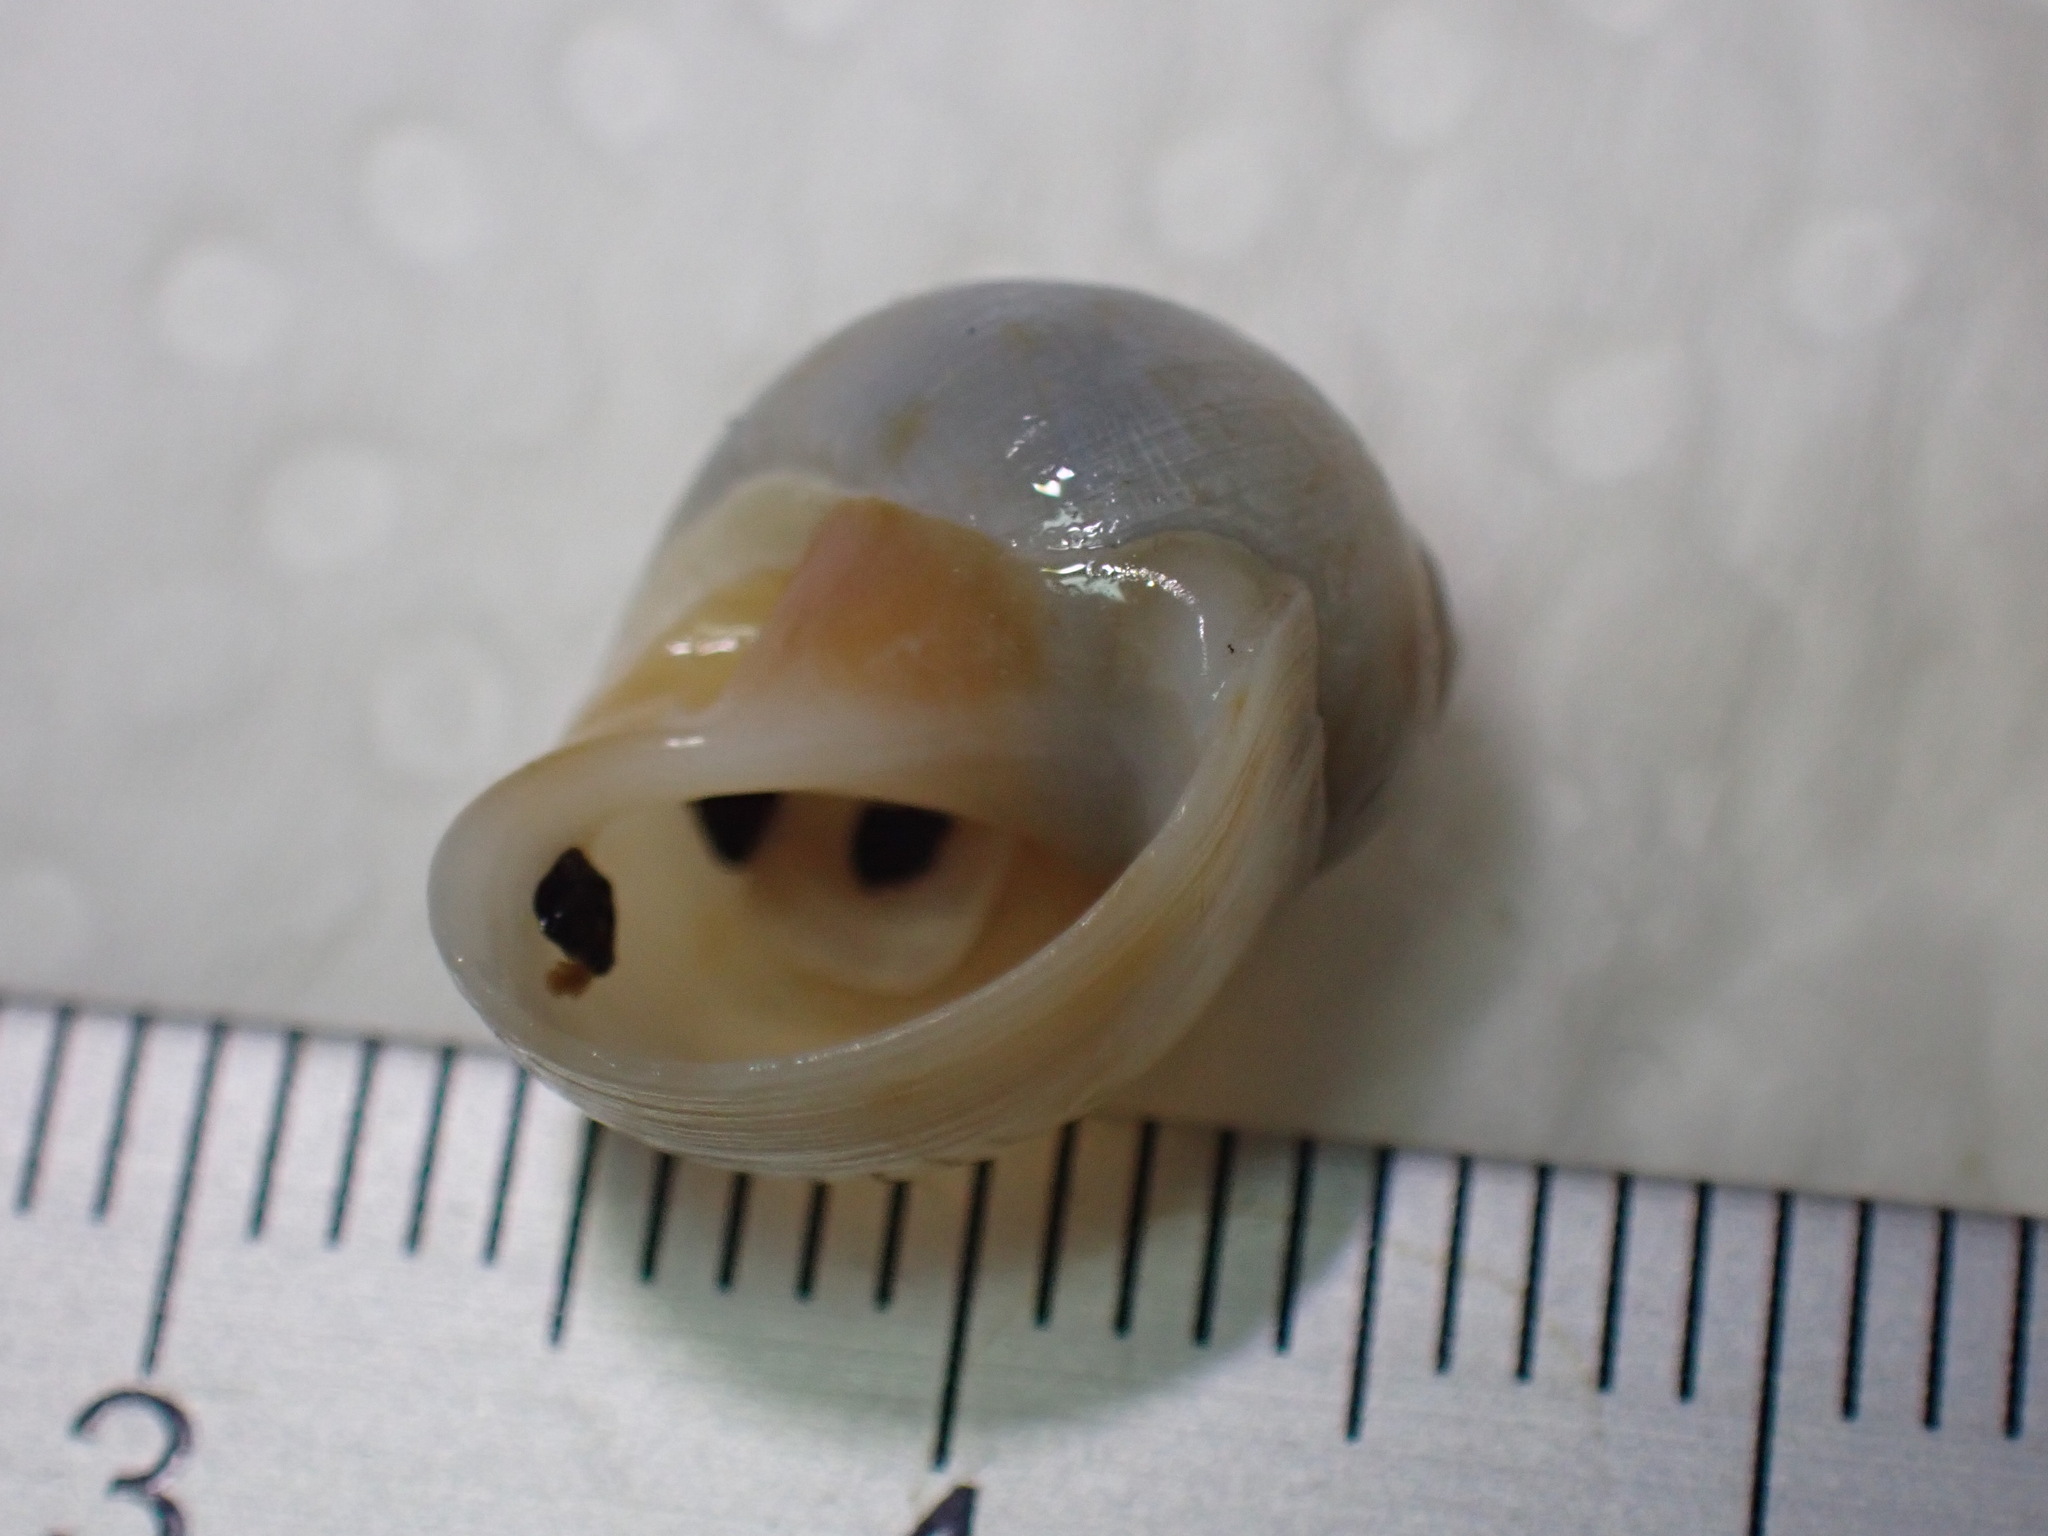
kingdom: Animalia
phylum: Mollusca
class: Gastropoda
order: Littorinimorpha
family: Naticidae
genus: Euspira
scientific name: Euspira nitida
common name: Alder's necklace shell
